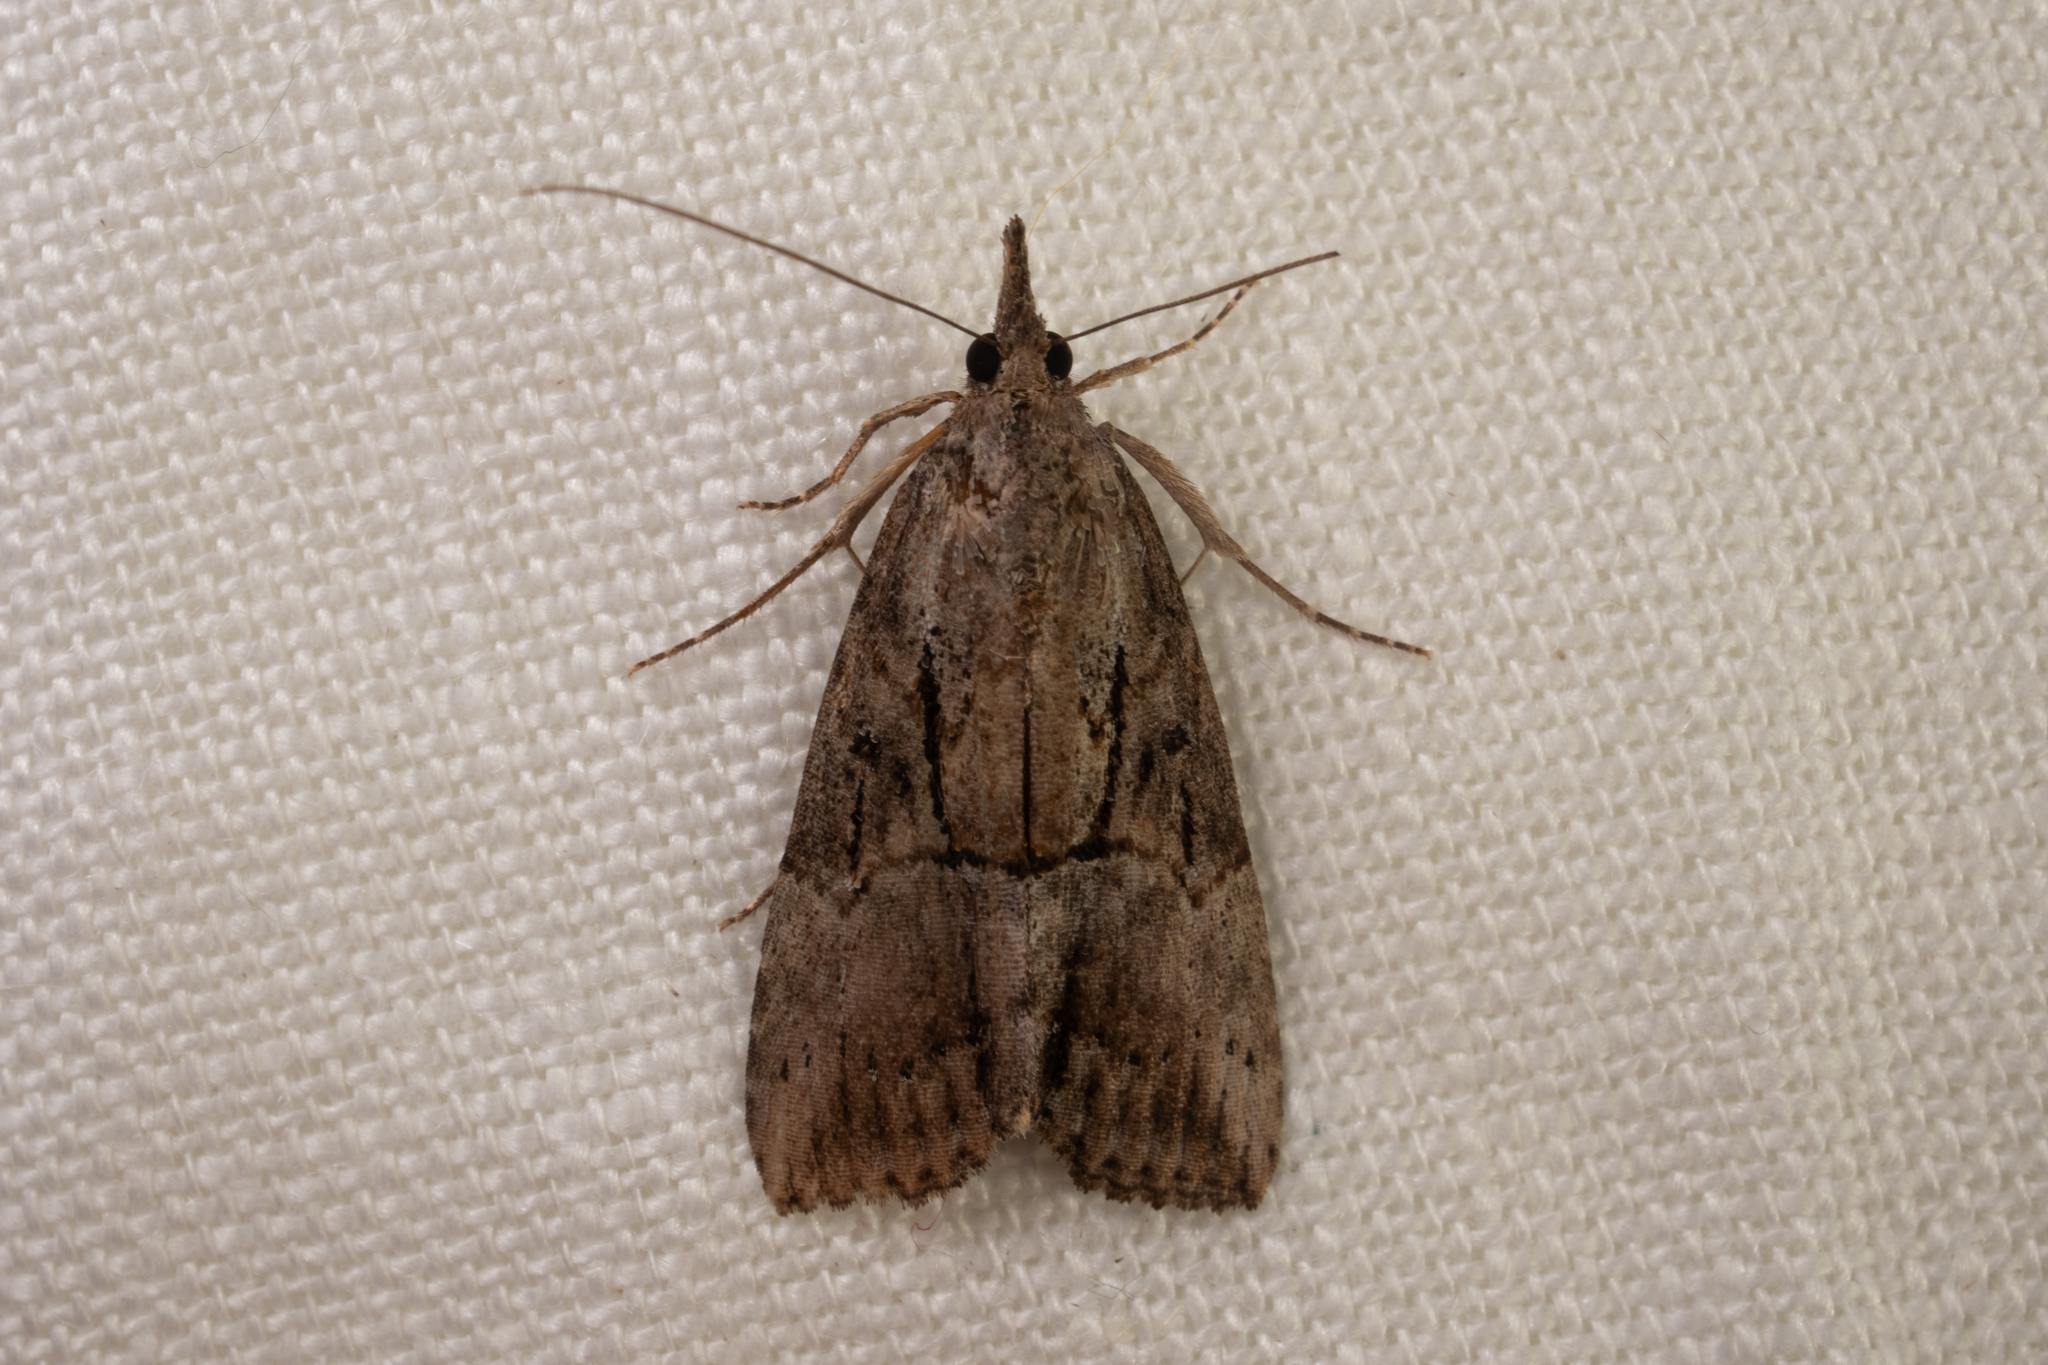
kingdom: Animalia
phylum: Arthropoda
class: Insecta
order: Lepidoptera
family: Erebidae
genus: Hypena
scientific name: Hypena scabra
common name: Green cloverworm
